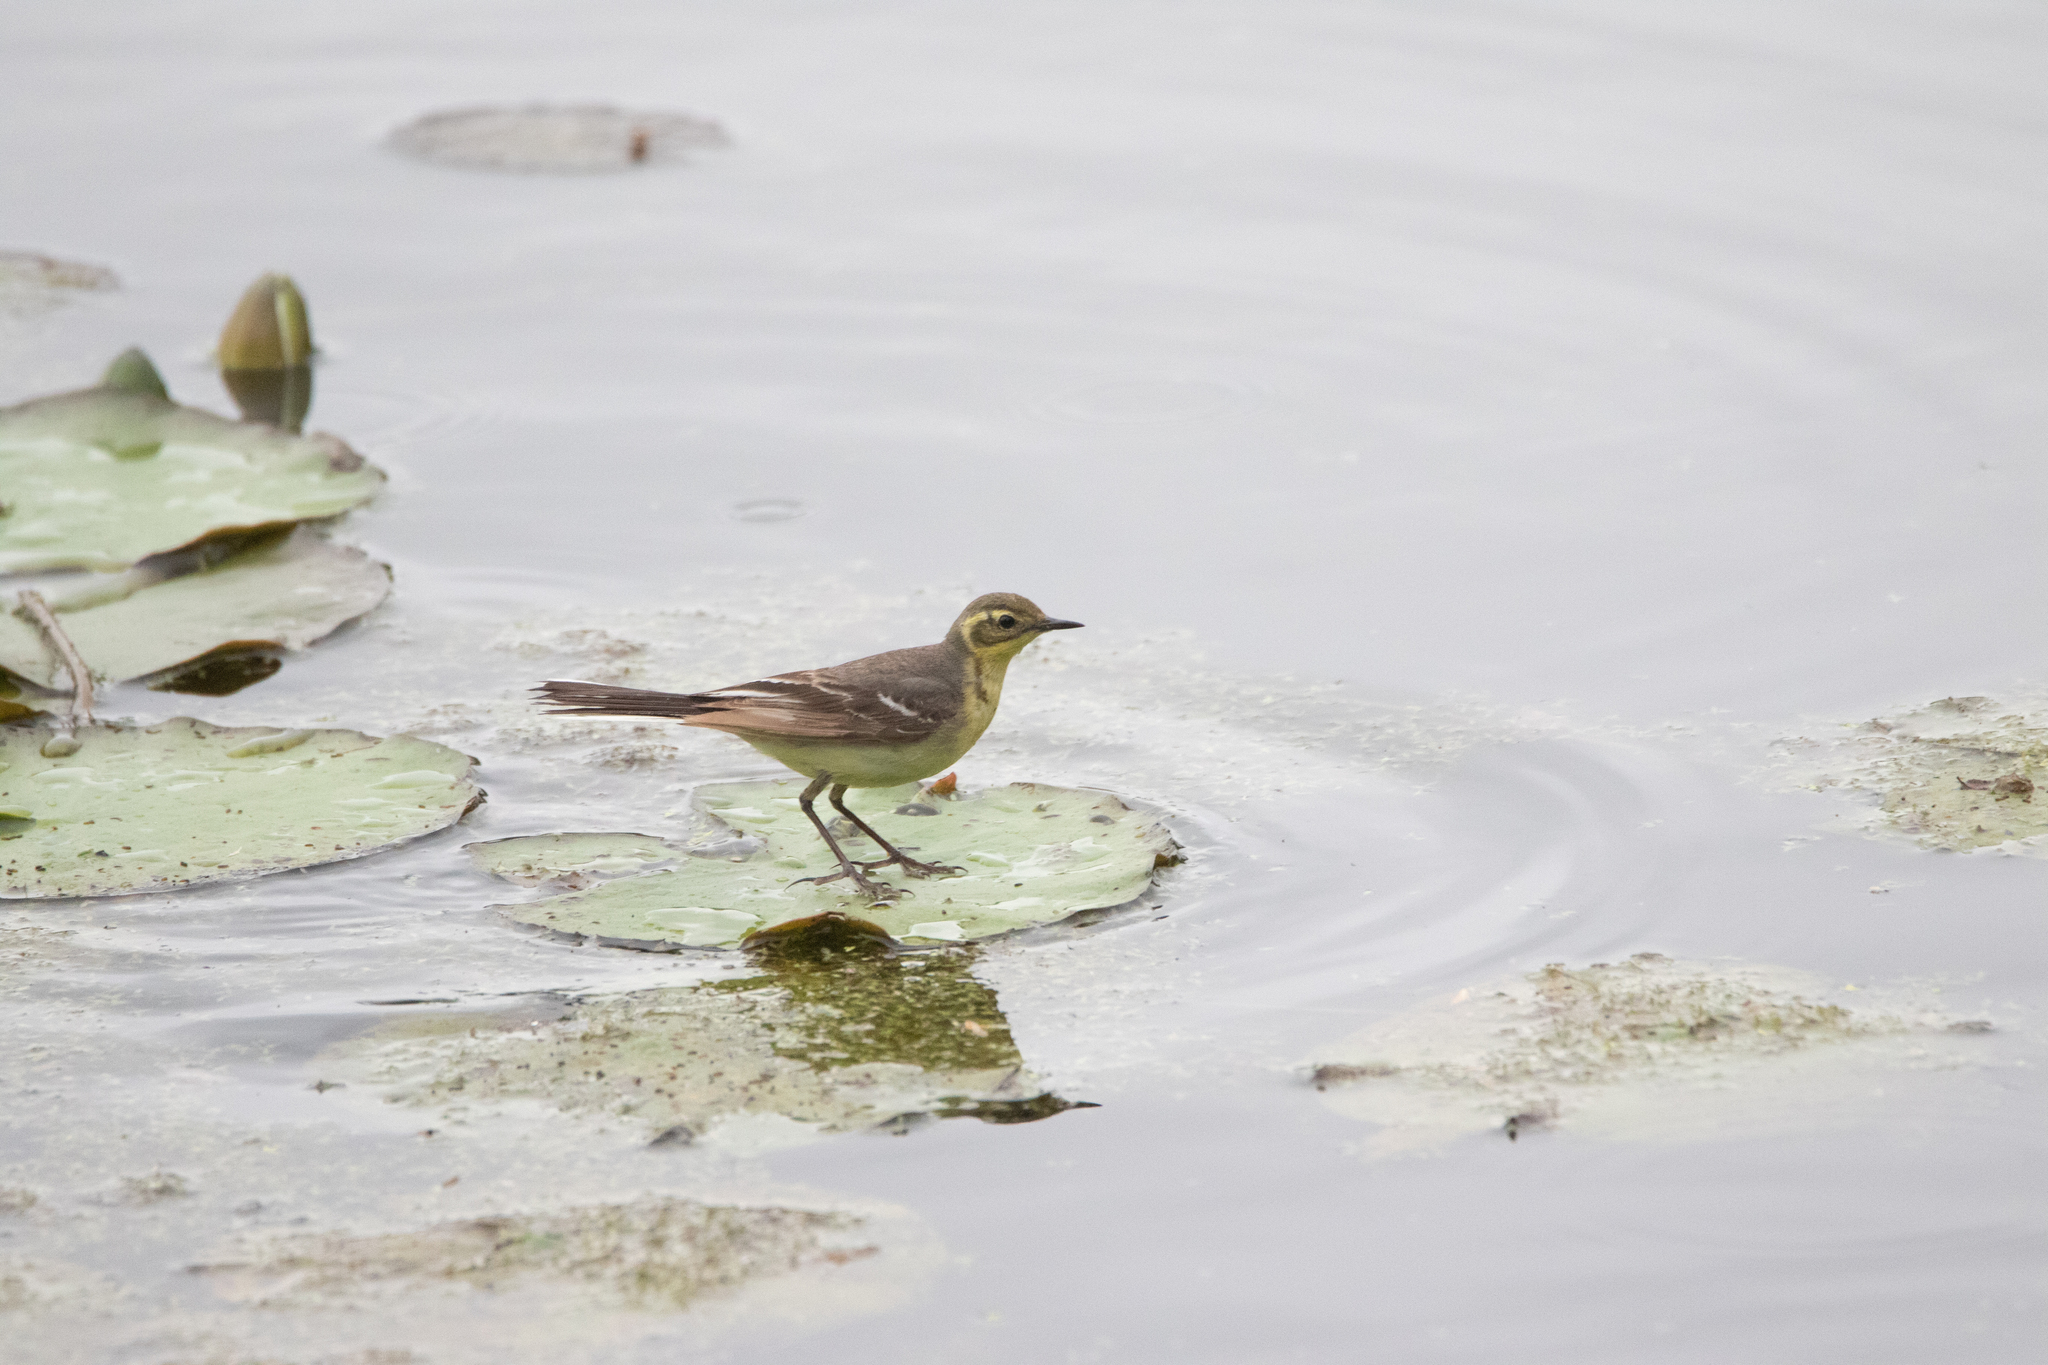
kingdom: Animalia
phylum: Chordata
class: Aves
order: Passeriformes
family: Motacillidae
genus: Motacilla
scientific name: Motacilla citreola
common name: Citrine wagtail
